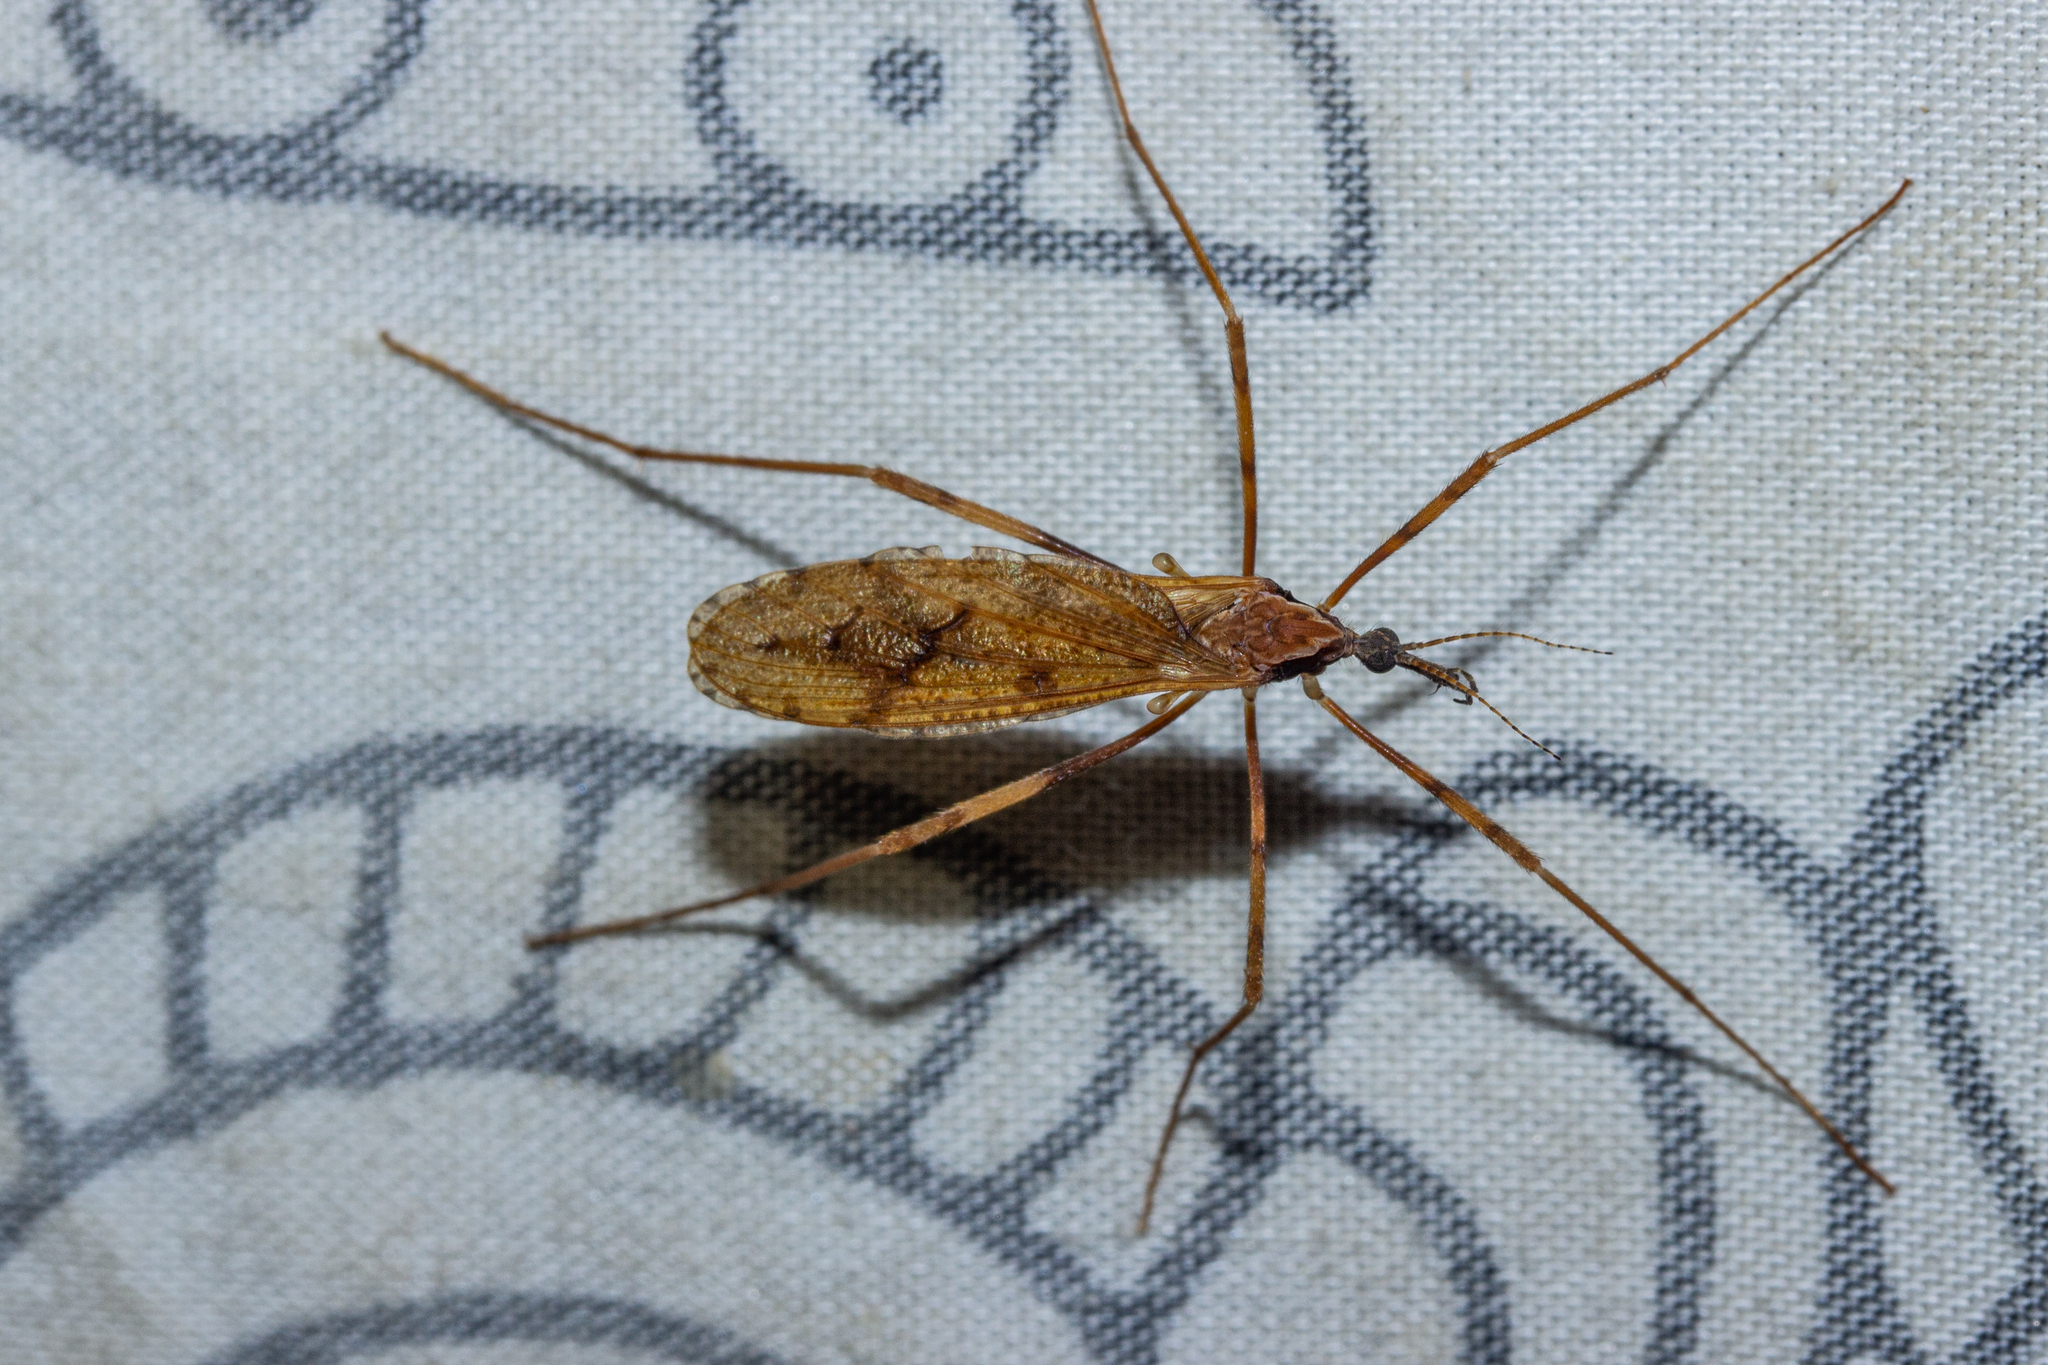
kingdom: Animalia
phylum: Arthropoda
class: Insecta
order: Diptera
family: Limoniidae
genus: Rhamphophila
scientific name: Rhamphophila sinistra
